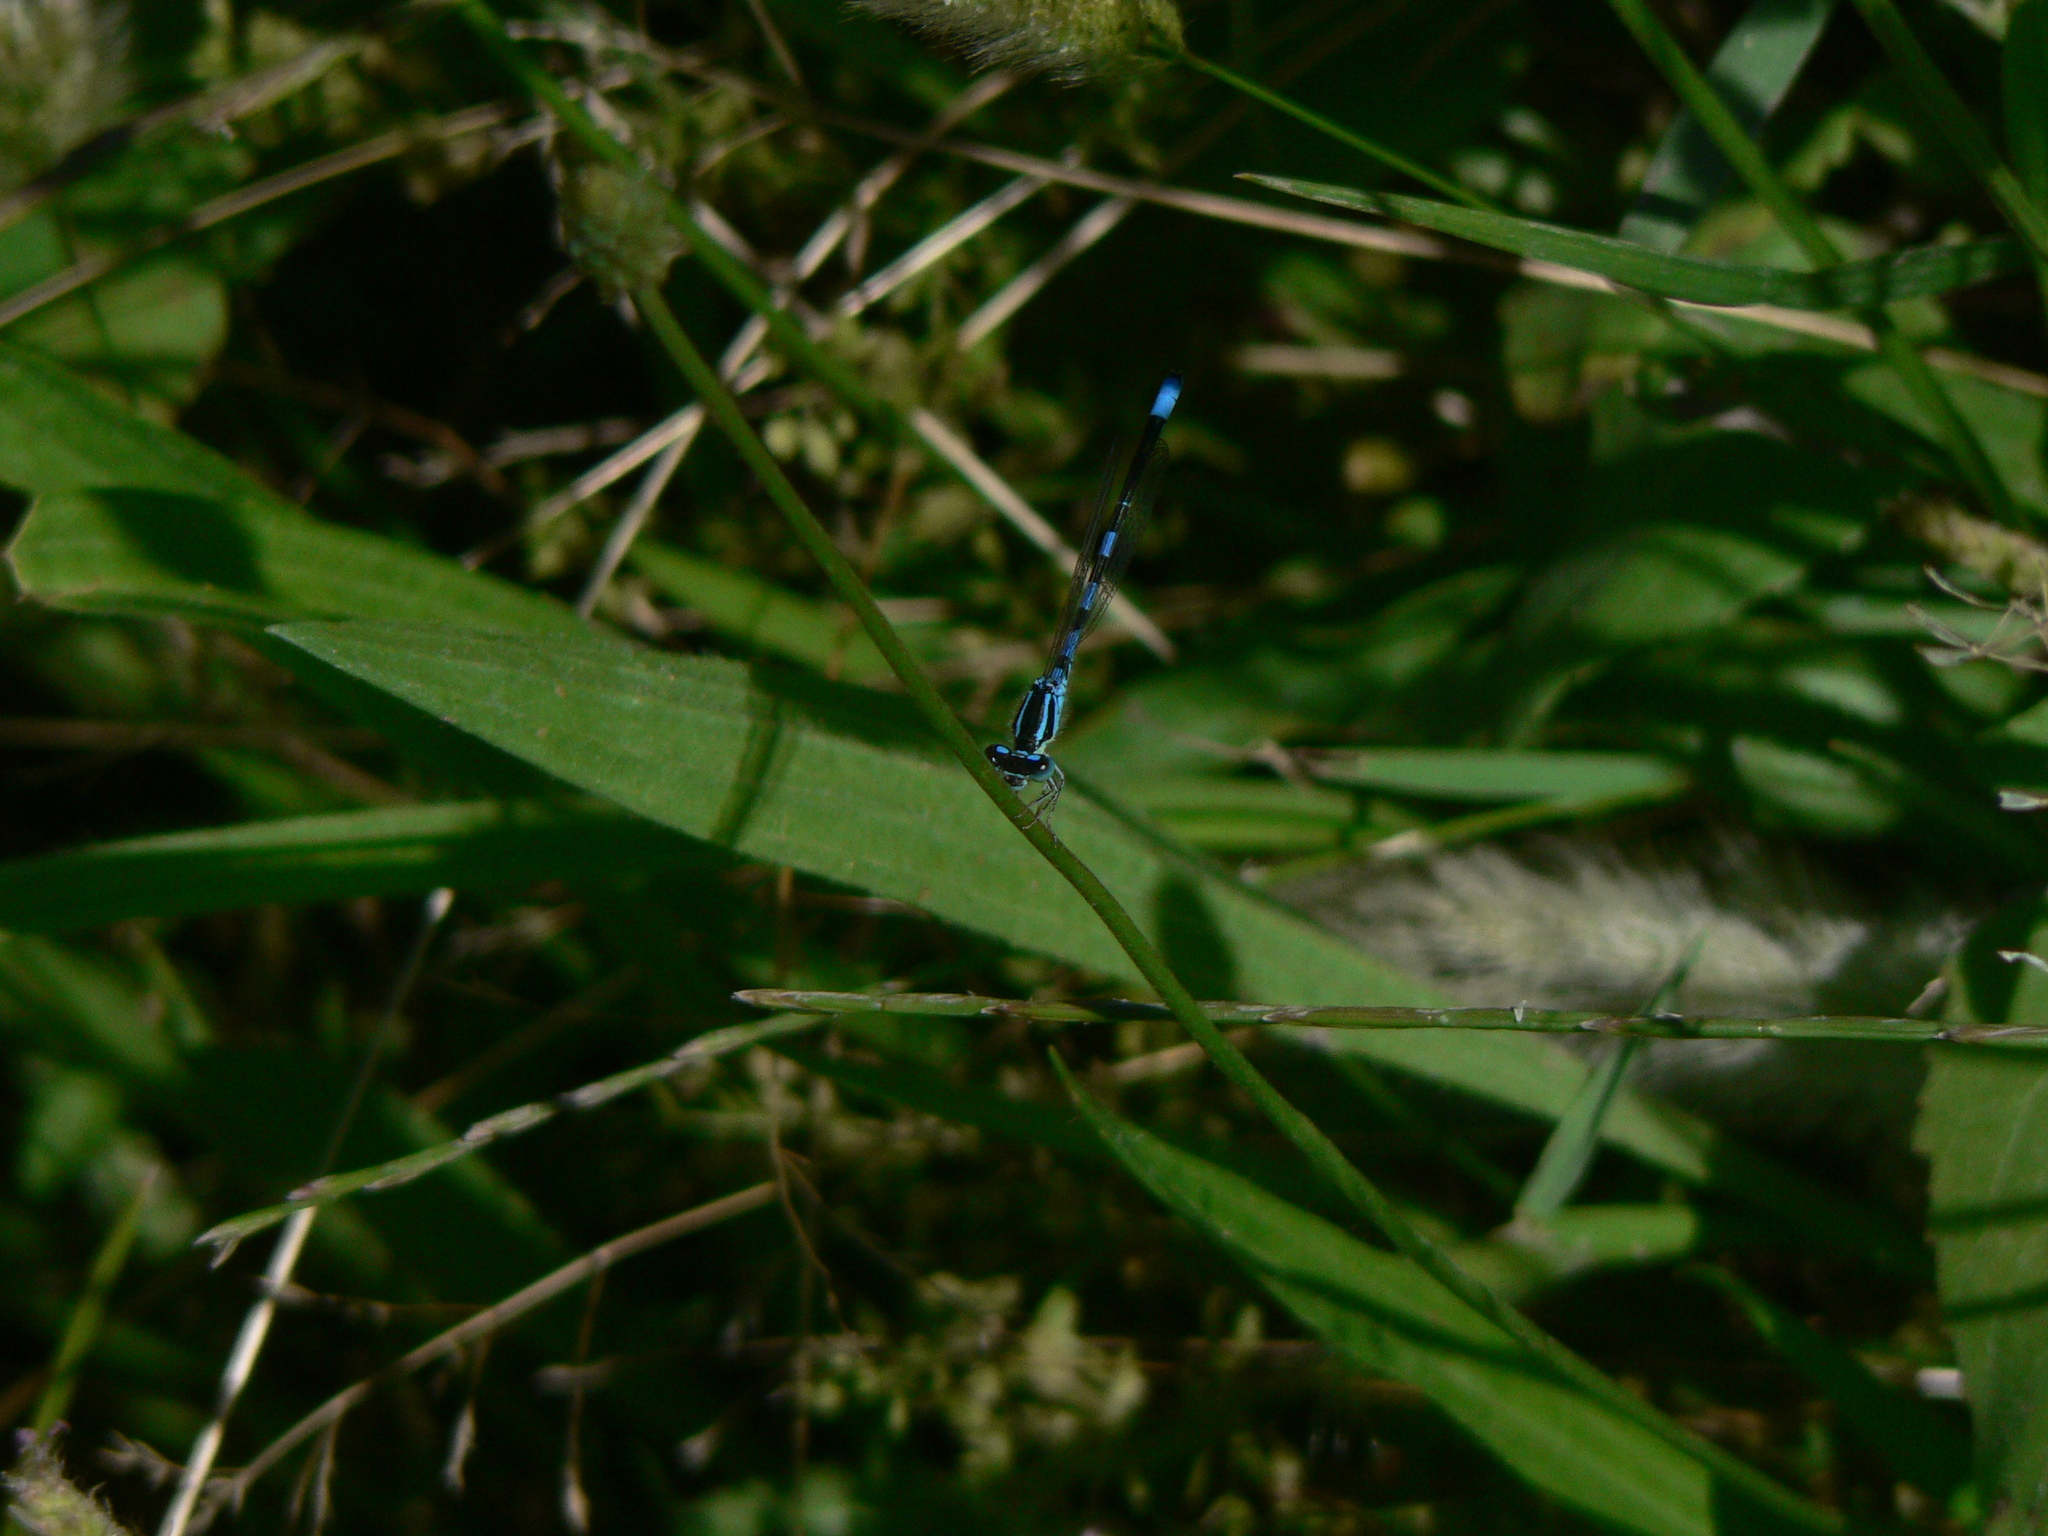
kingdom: Animalia
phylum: Arthropoda
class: Insecta
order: Odonata
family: Coenagrionidae
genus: Coenagrion
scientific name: Coenagrion scitulum
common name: Dainty bluet
